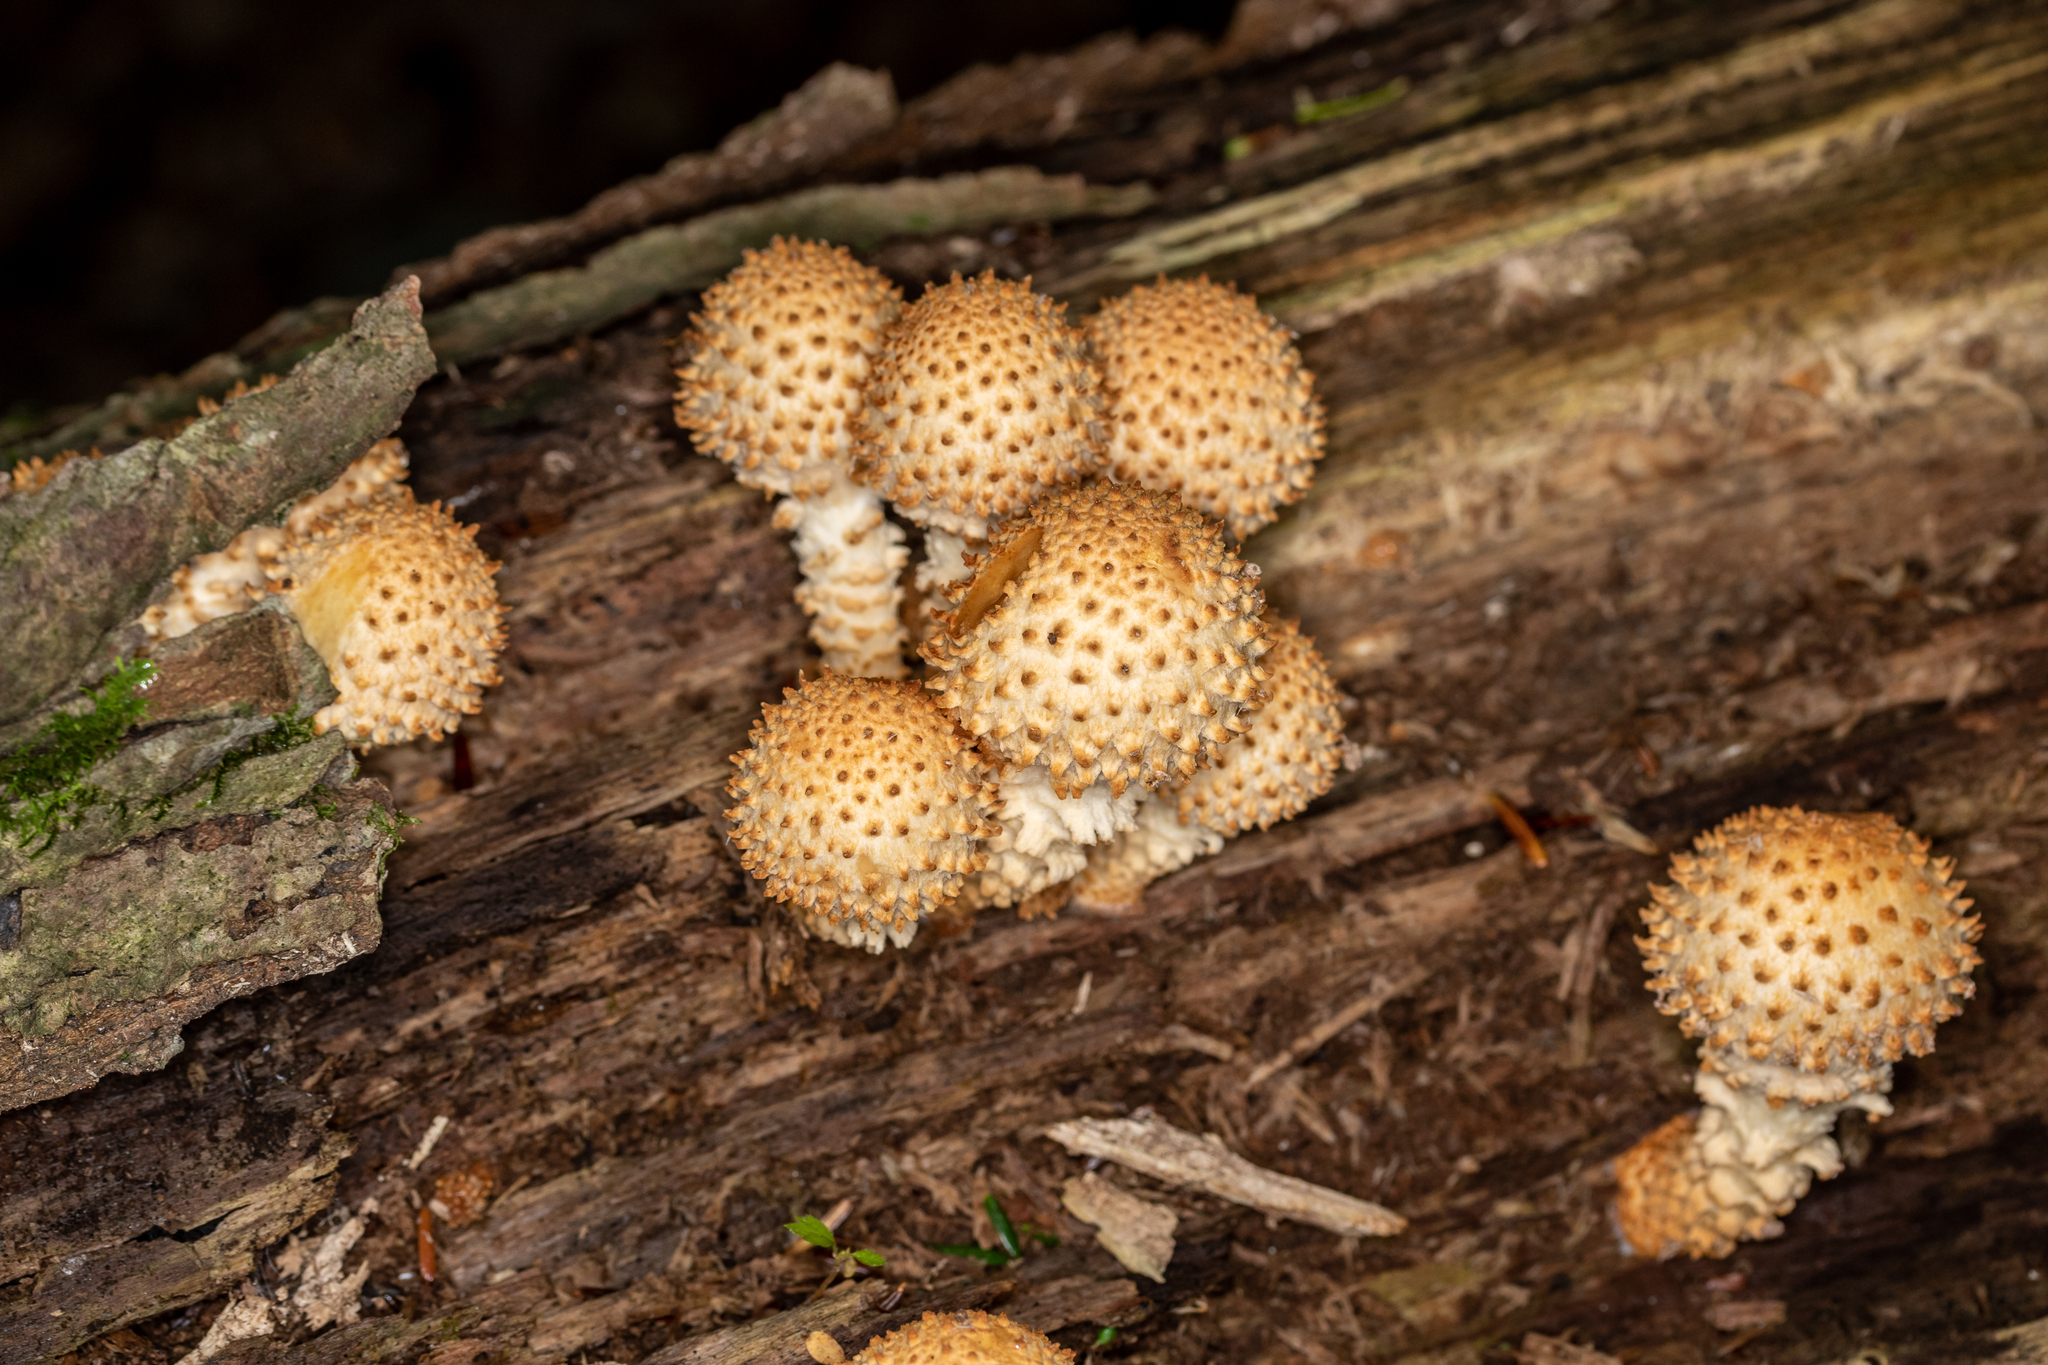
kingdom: Fungi
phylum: Basidiomycota
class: Agaricomycetes
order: Agaricales
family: Strophariaceae
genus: Pholiota
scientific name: Pholiota squarrosoides
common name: Sharp-scaly pholiota
